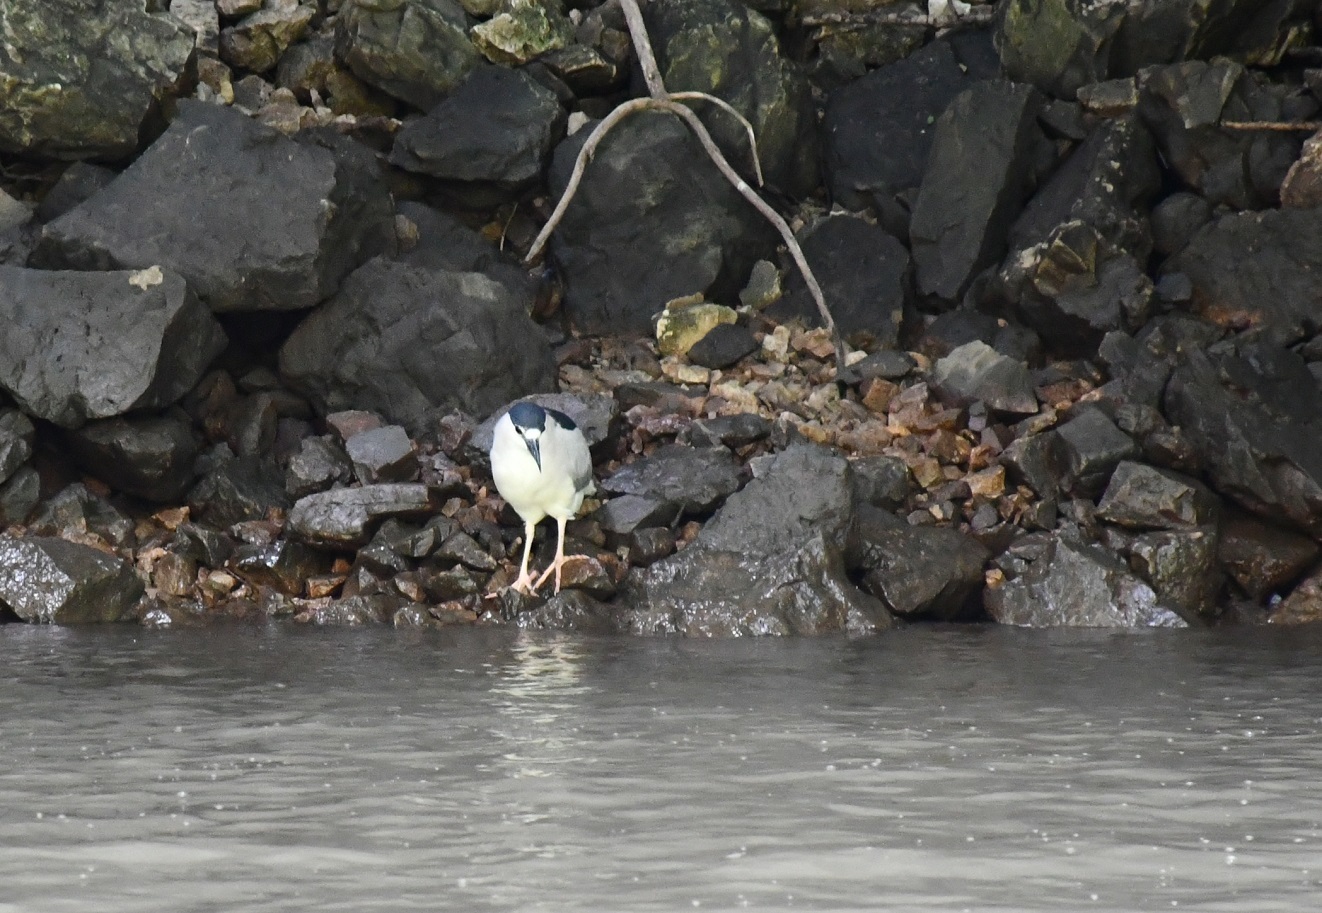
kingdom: Animalia
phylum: Chordata
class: Aves
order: Pelecaniformes
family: Ardeidae
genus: Nycticorax
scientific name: Nycticorax nycticorax
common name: Black-crowned night heron
